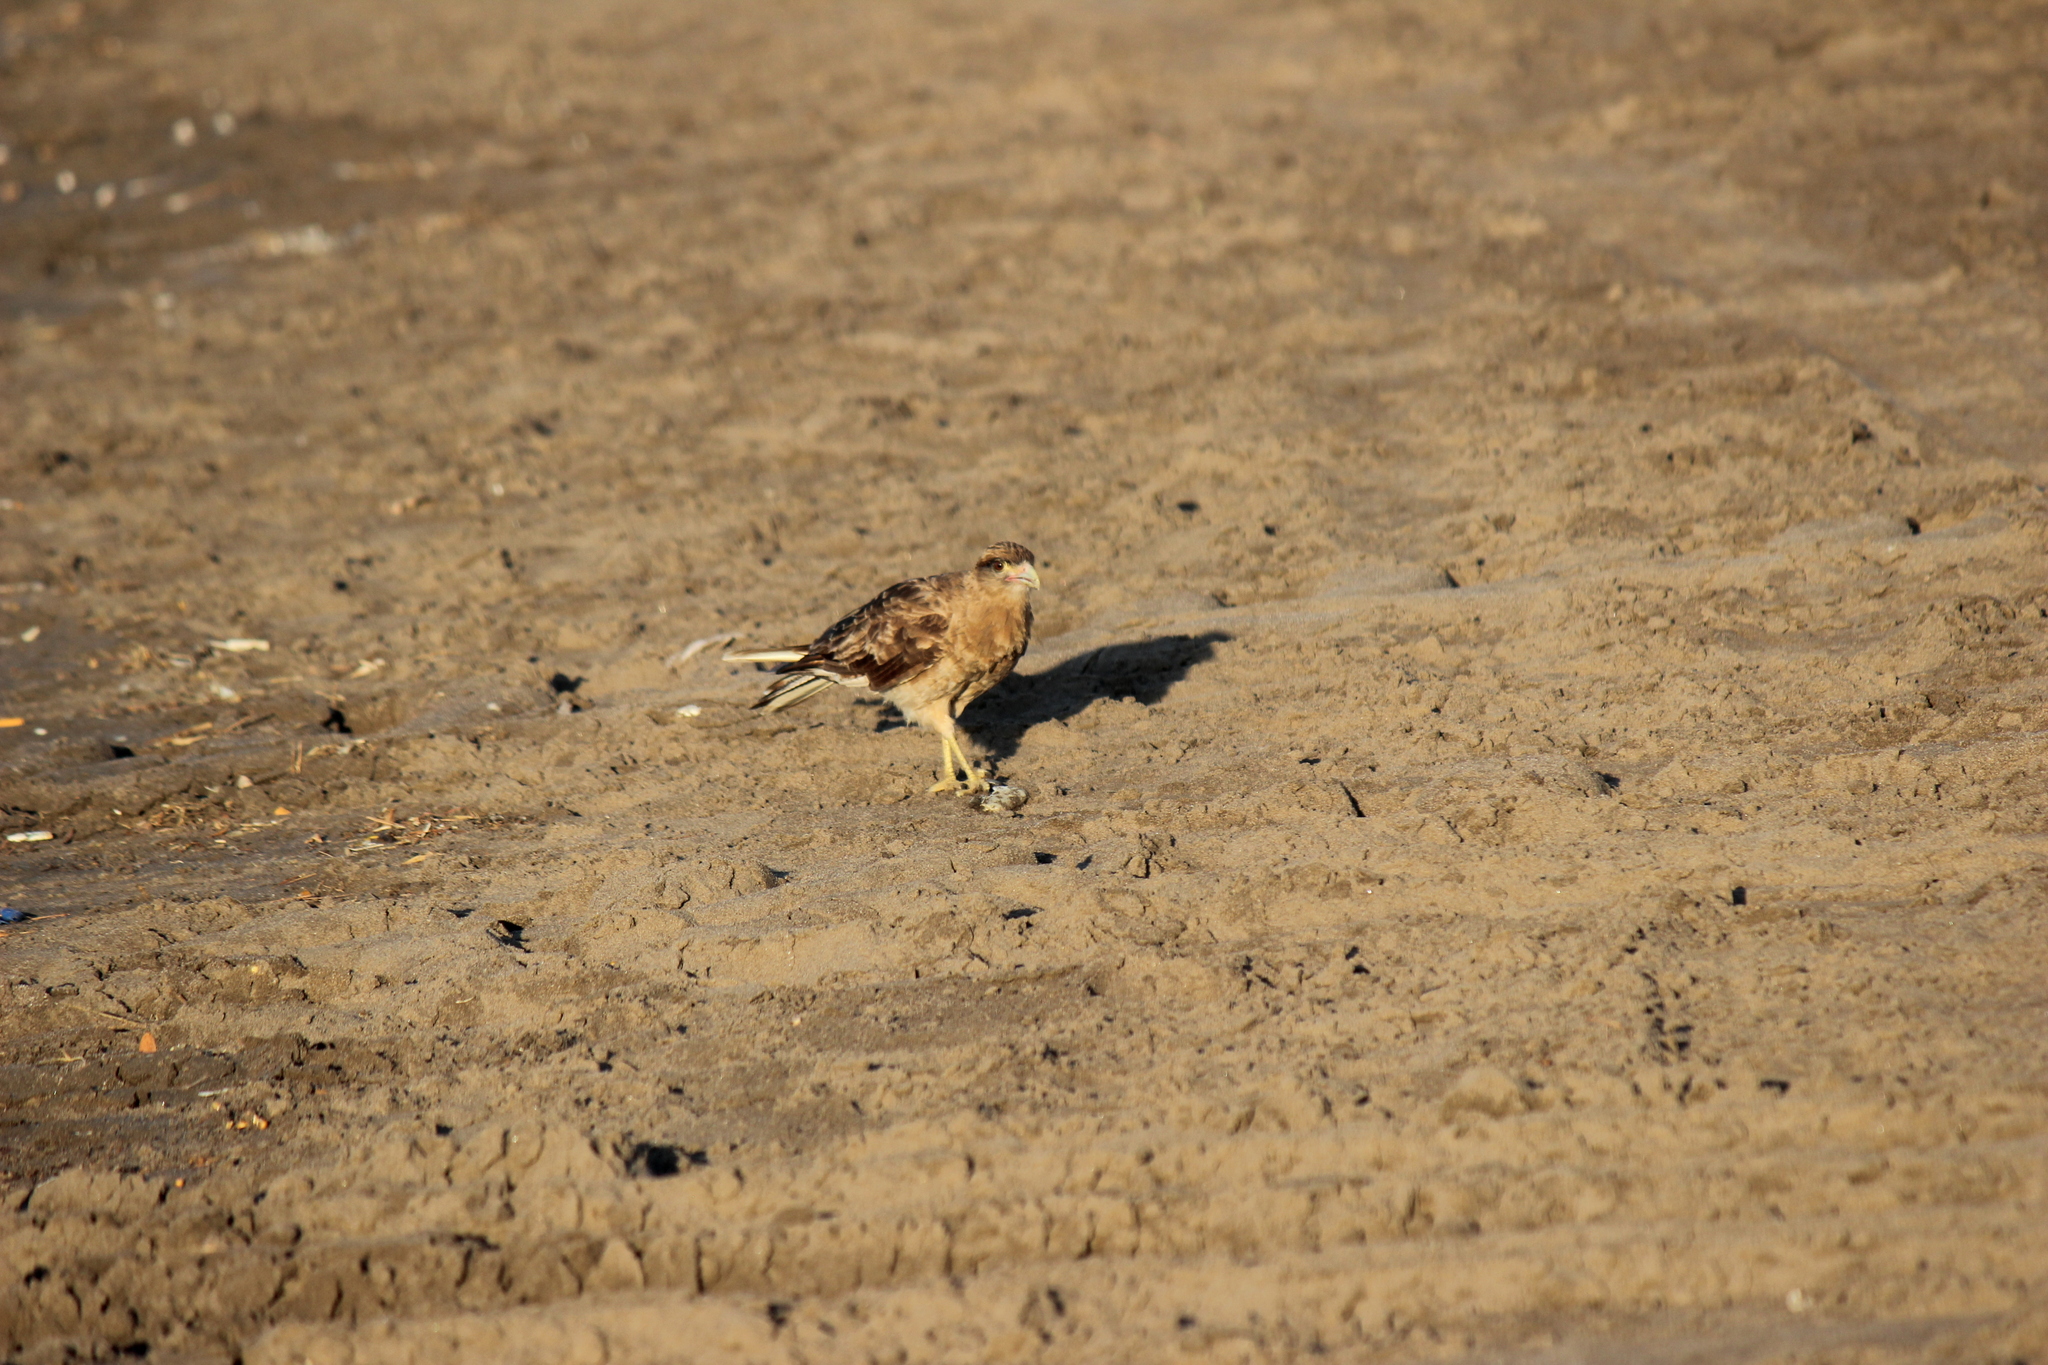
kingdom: Animalia
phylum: Chordata
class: Aves
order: Falconiformes
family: Falconidae
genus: Daptrius
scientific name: Daptrius
